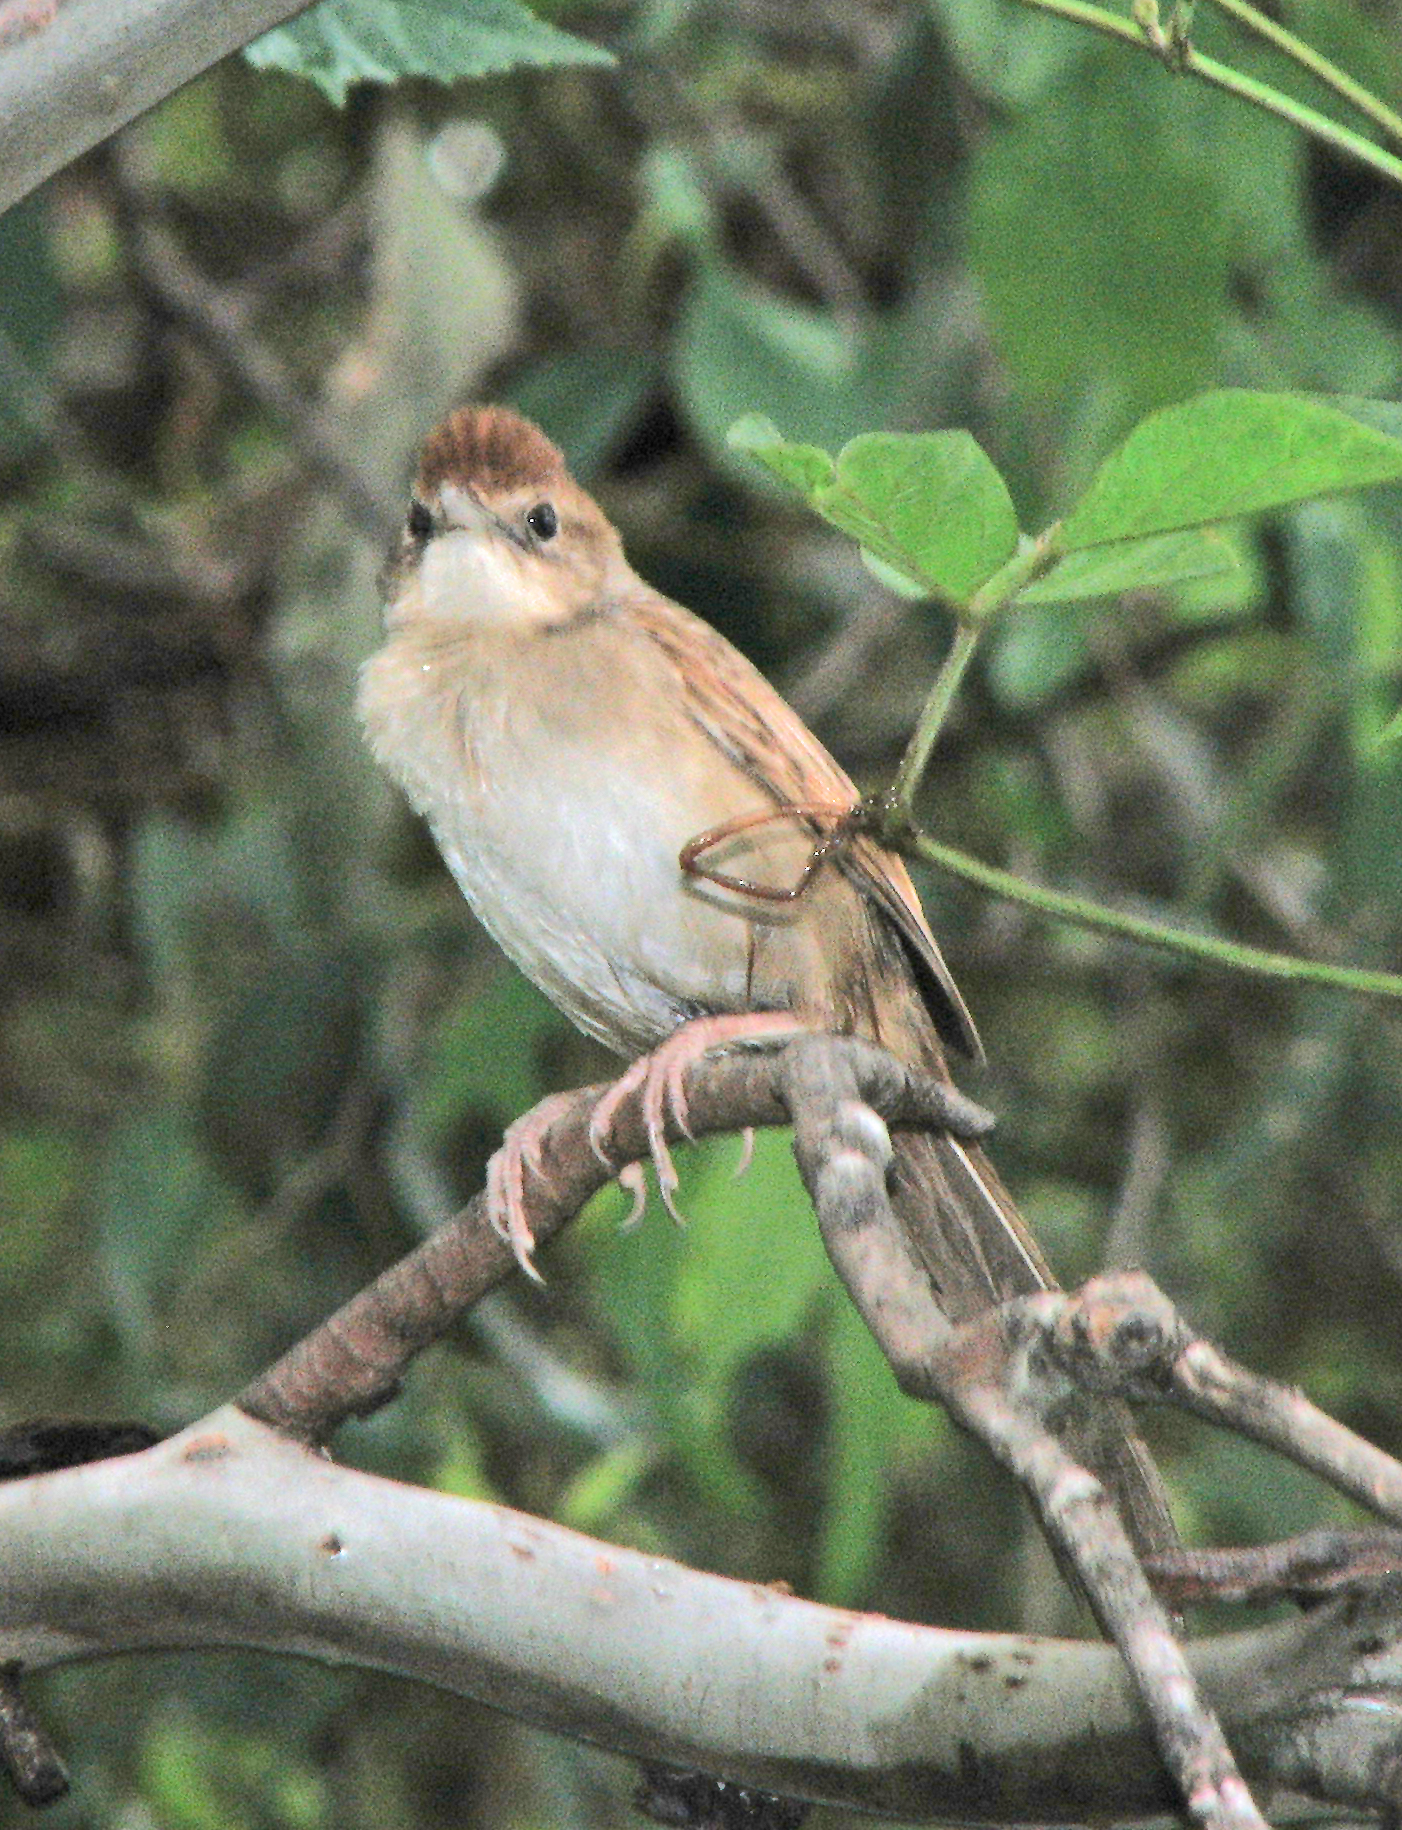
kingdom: Animalia
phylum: Chordata
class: Aves
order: Passeriformes
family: Locustellidae
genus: Megalurus
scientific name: Megalurus timoriensis
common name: Tawny grassbird
